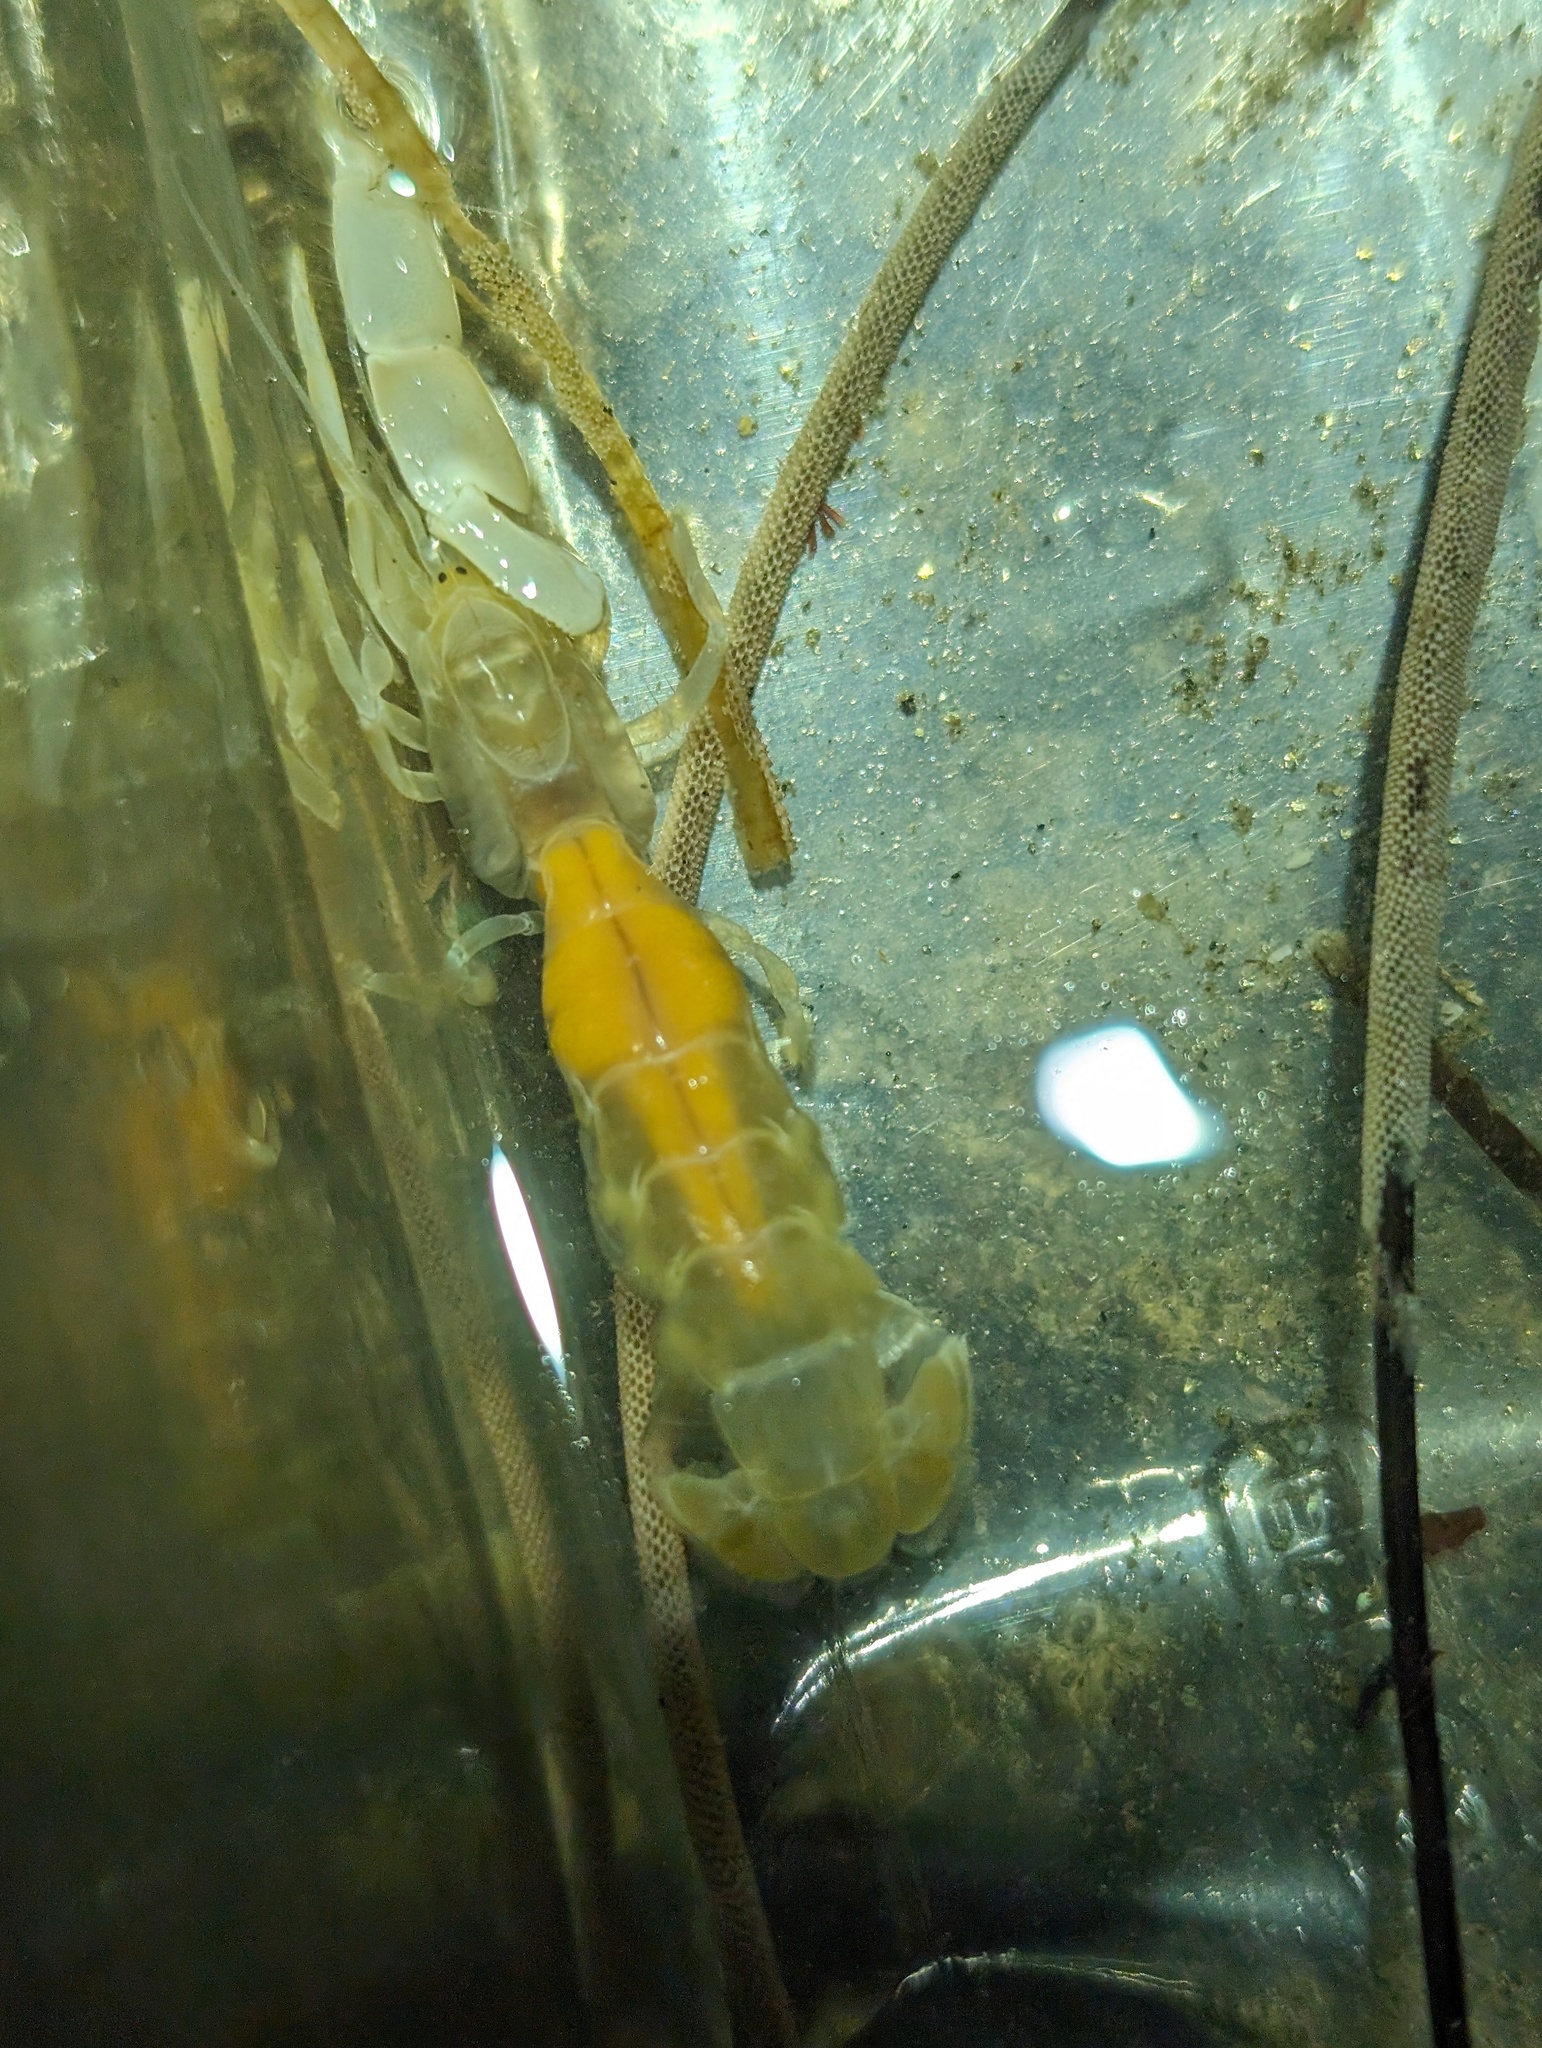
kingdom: Animalia
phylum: Arthropoda
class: Malacostraca
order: Decapoda
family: Callianassidae
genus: Neotrypaea
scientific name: Neotrypaea biffari
